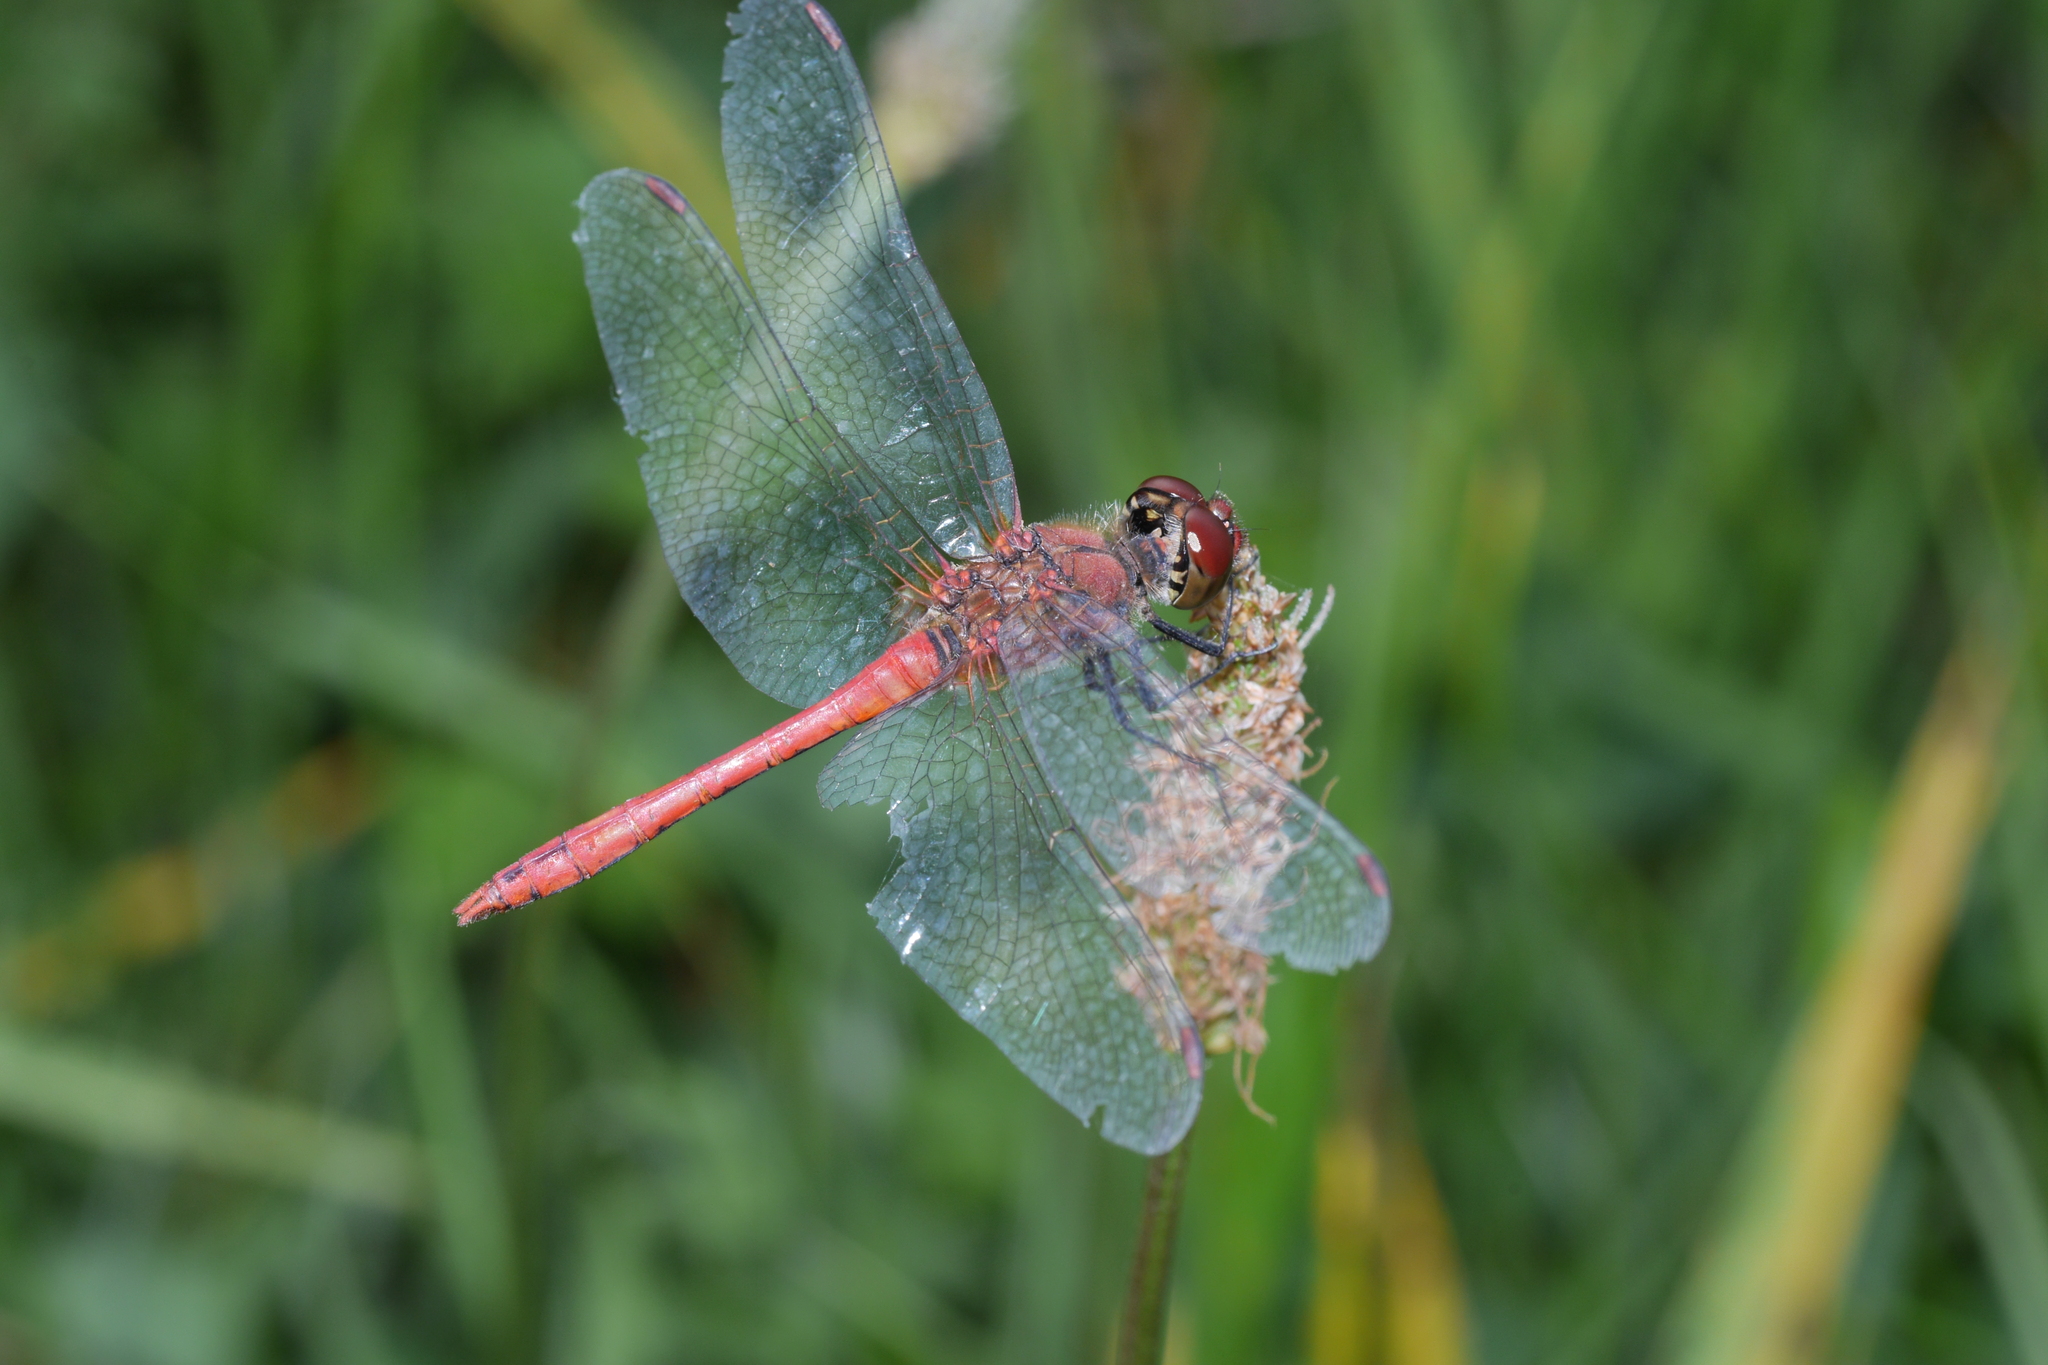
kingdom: Animalia
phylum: Arthropoda
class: Insecta
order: Odonata
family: Libellulidae
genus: Sympetrum
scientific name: Sympetrum sanguineum
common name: Ruddy darter
